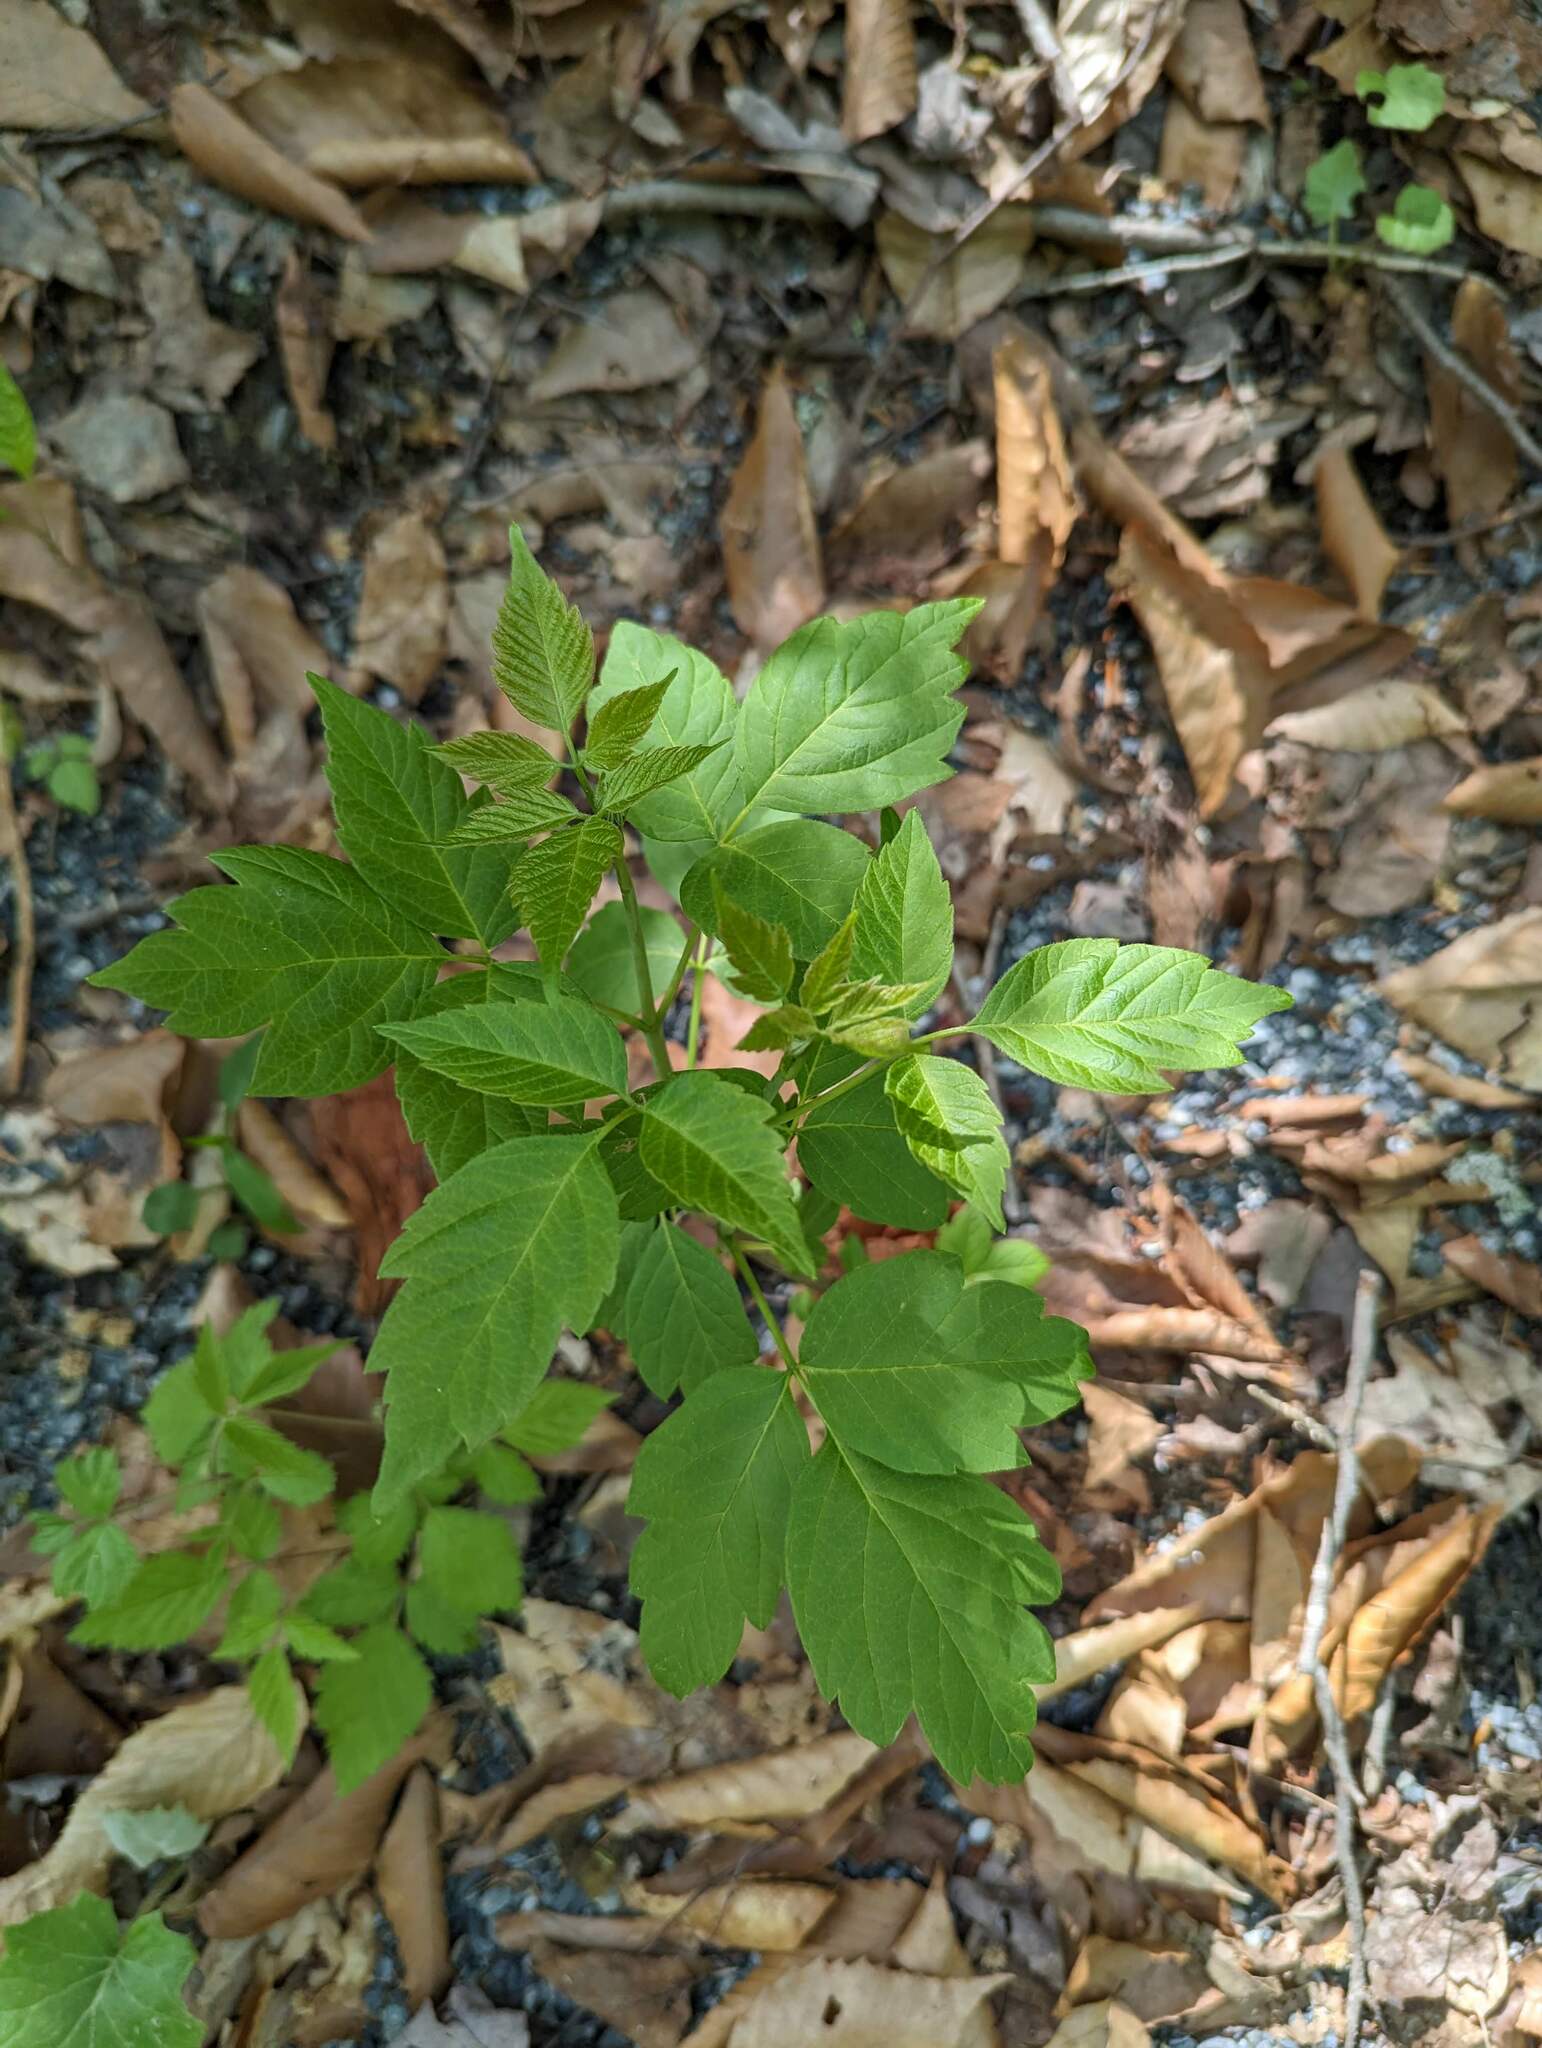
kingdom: Plantae
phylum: Tracheophyta
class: Magnoliopsida
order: Sapindales
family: Sapindaceae
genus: Acer
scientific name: Acer negundo
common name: Ashleaf maple
